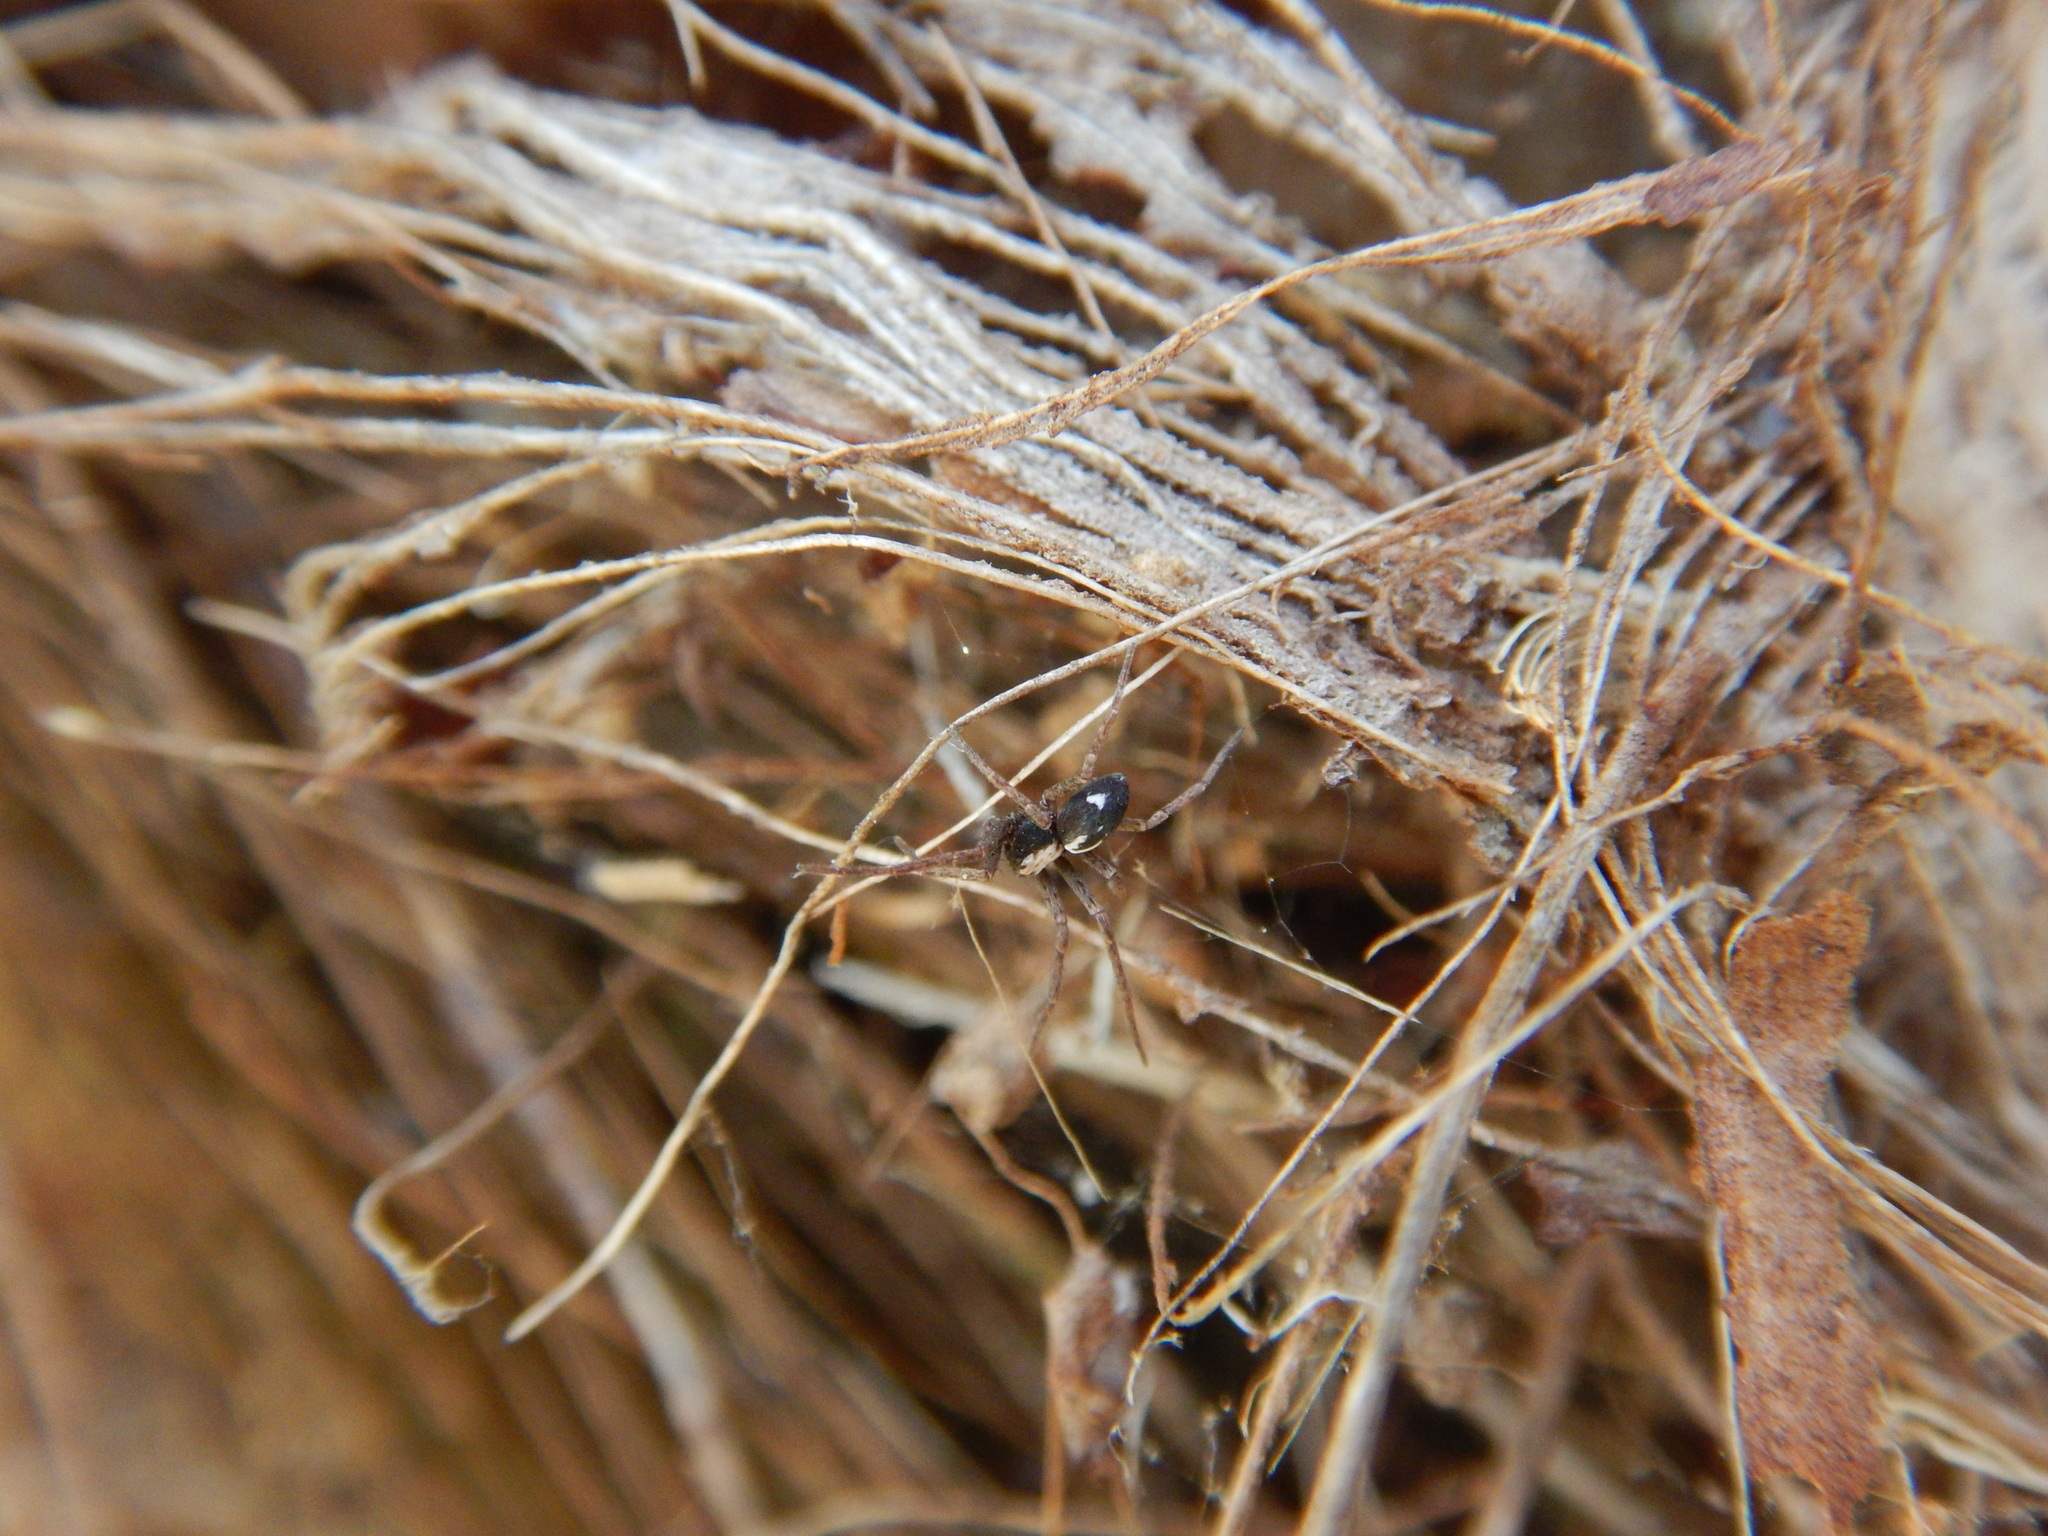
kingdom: Animalia
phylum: Arthropoda
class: Arachnida
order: Araneae
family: Philodromidae
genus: Pulchellodromus
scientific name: Pulchellodromus pulchellus
